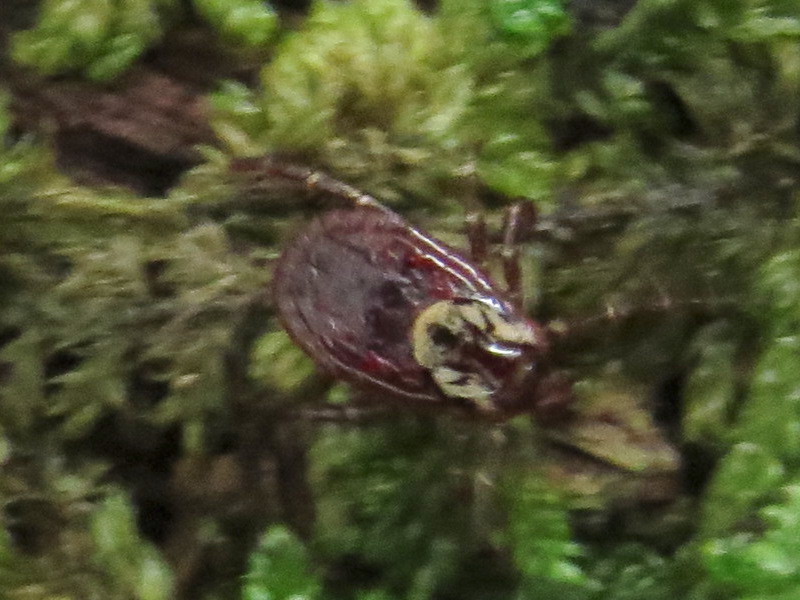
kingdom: Animalia
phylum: Arthropoda
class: Arachnida
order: Ixodida
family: Ixodidae
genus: Dermacentor
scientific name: Dermacentor variabilis
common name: American dog tick
